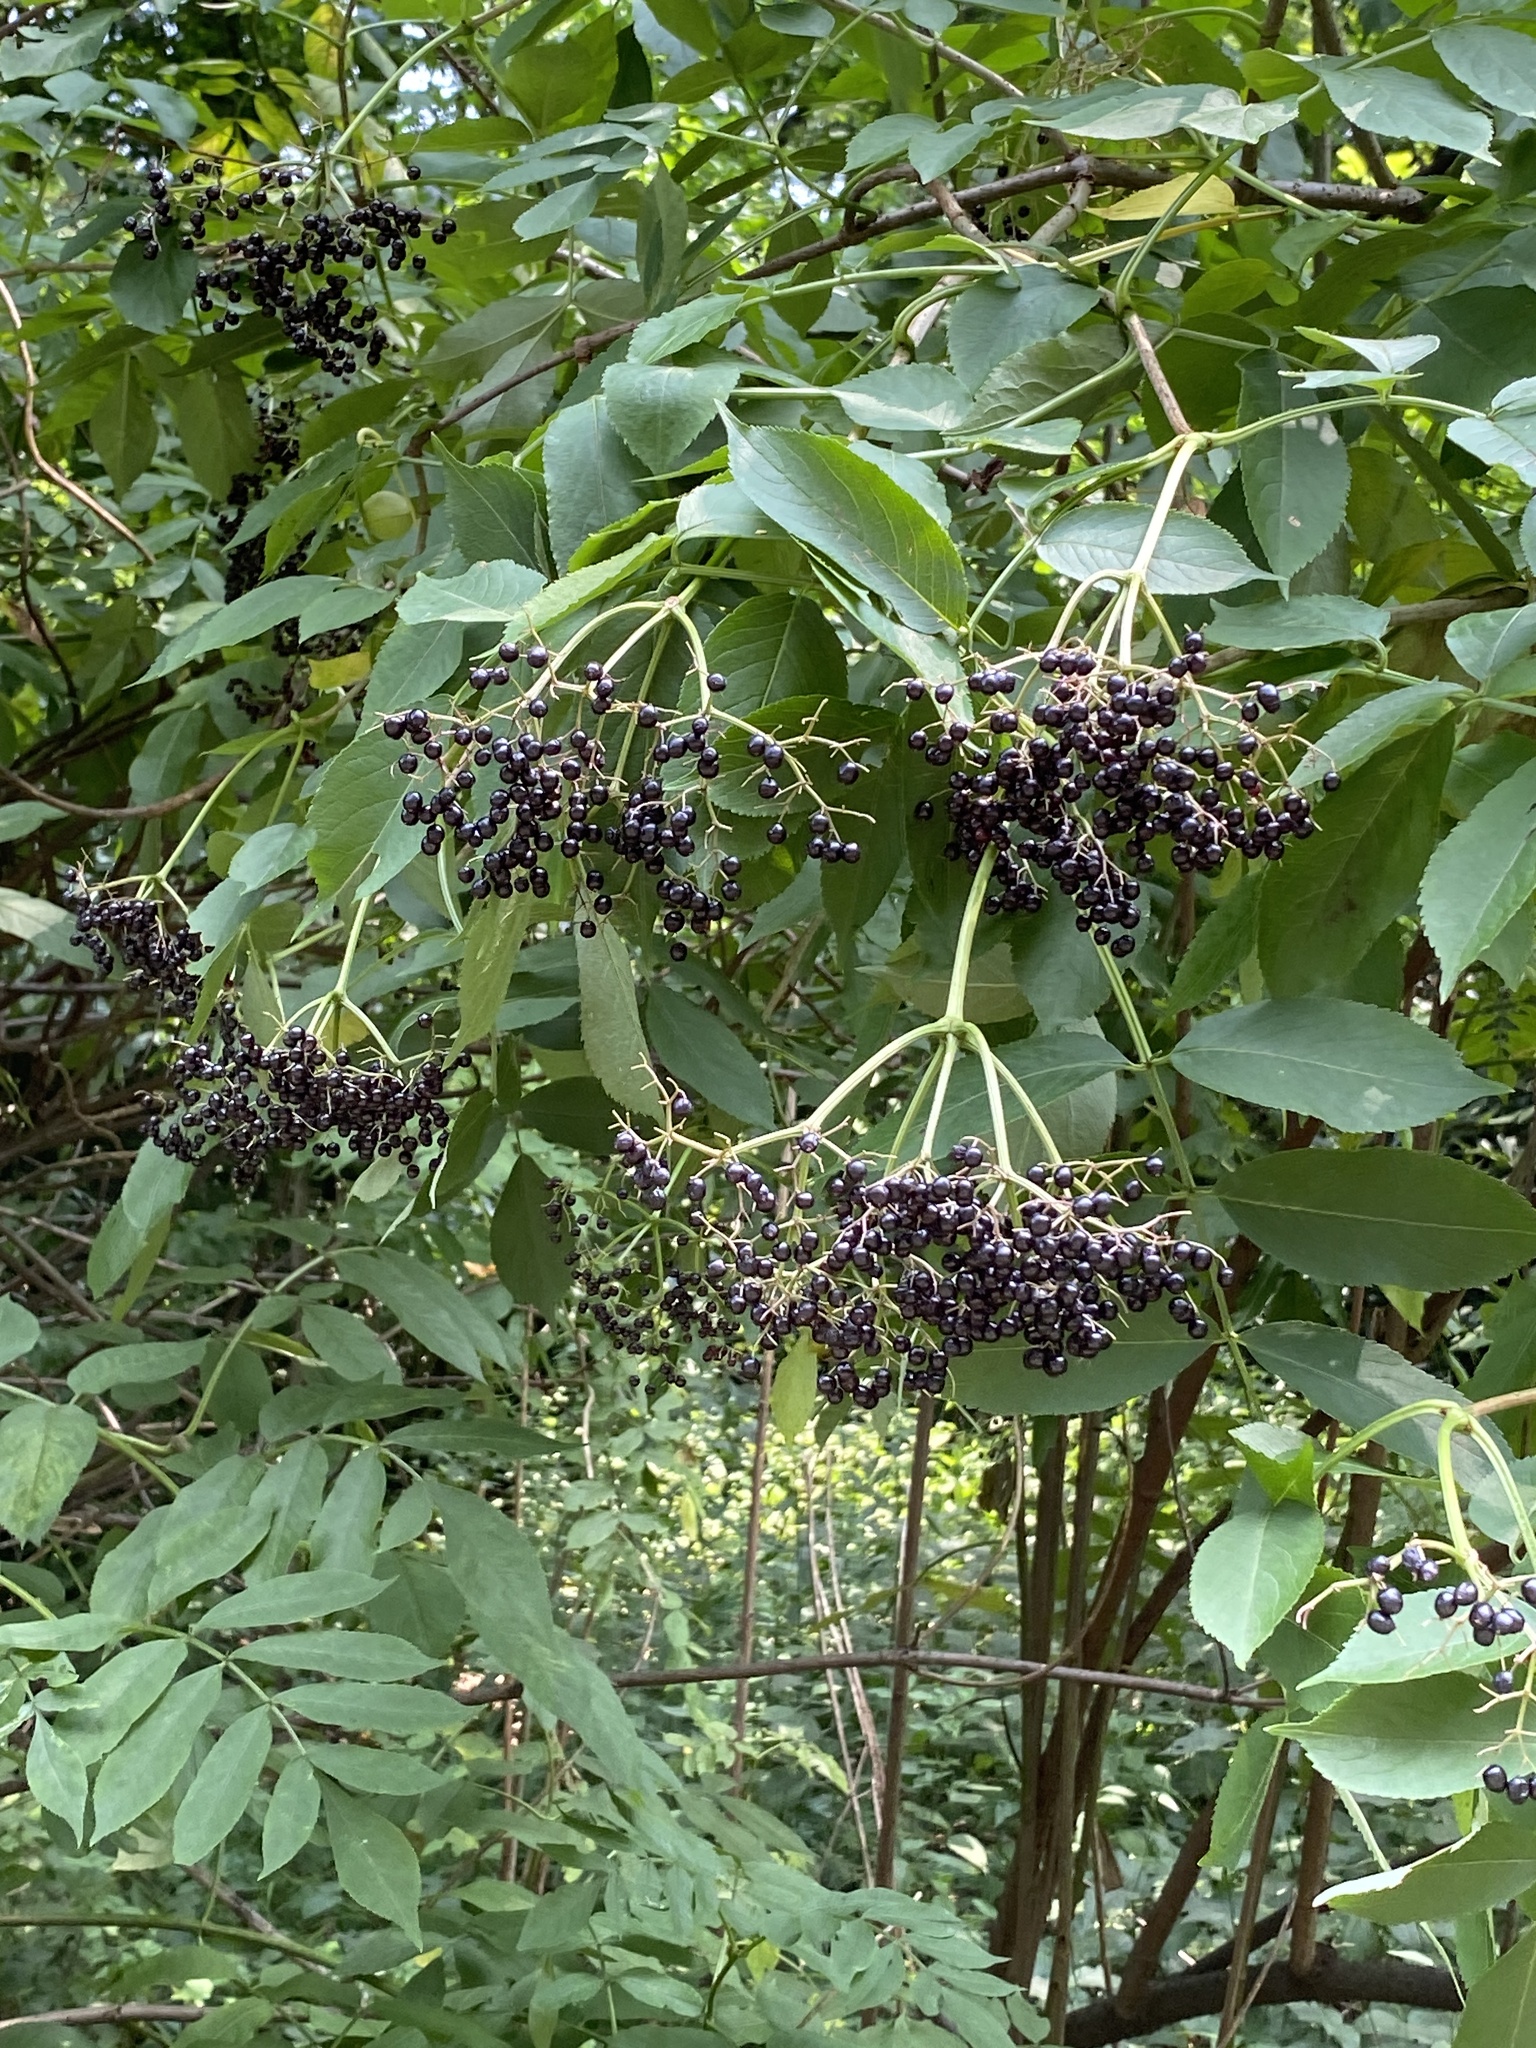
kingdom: Plantae
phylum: Tracheophyta
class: Magnoliopsida
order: Dipsacales
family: Viburnaceae
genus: Sambucus
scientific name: Sambucus canadensis
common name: American elder
